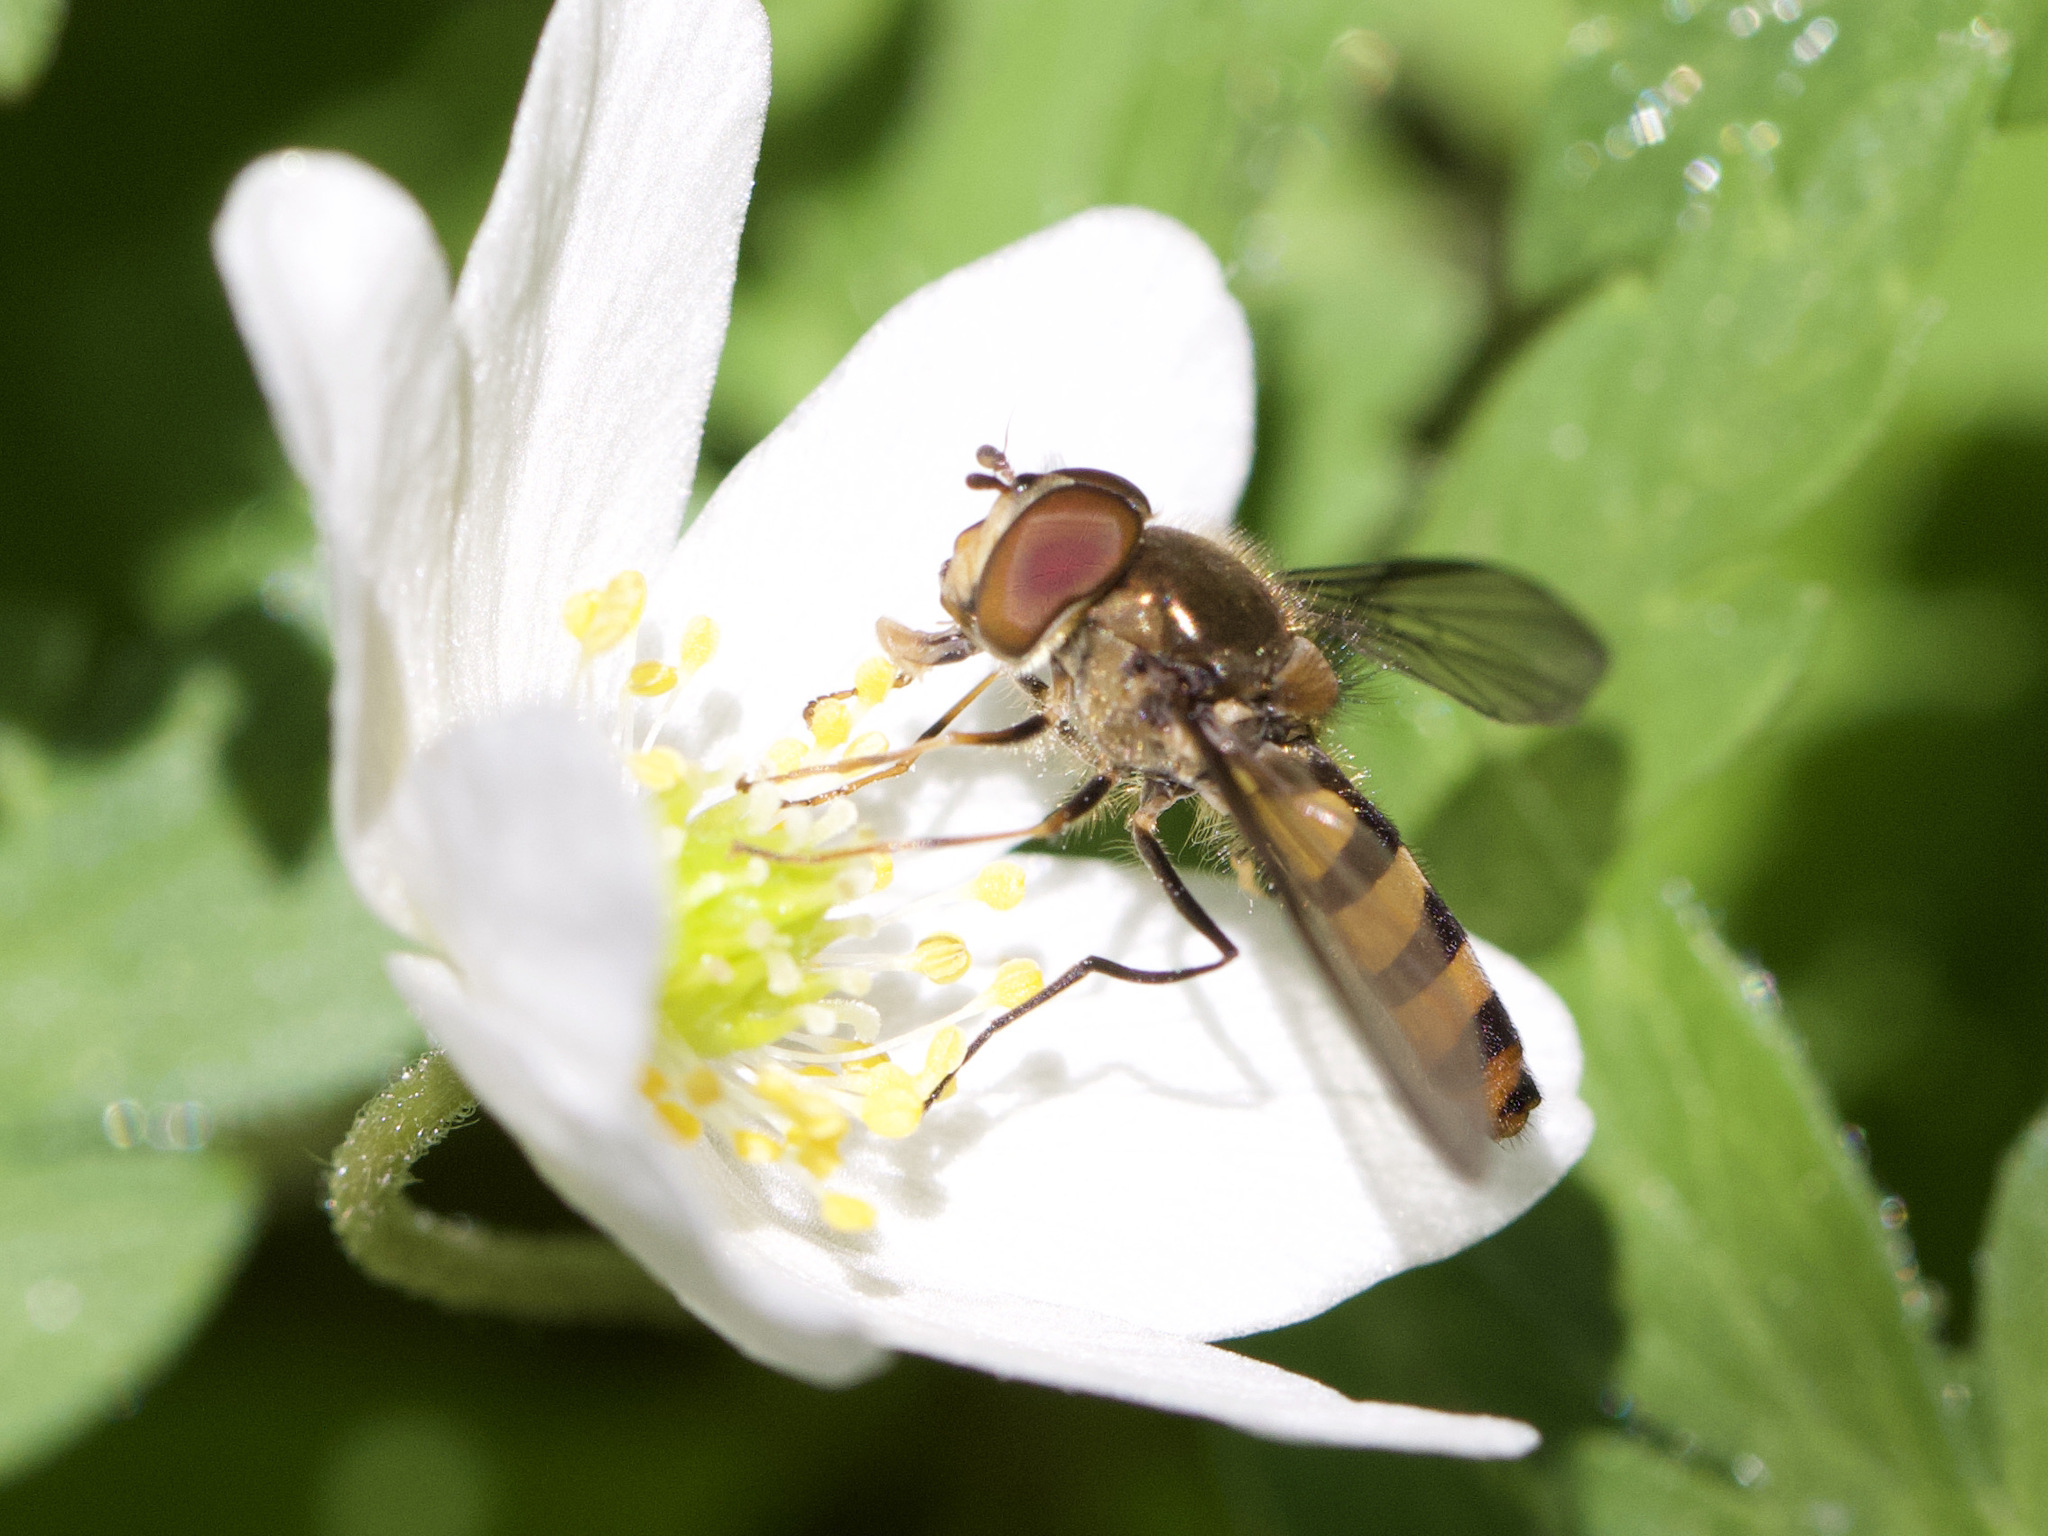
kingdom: Animalia
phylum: Arthropoda
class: Insecta
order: Diptera
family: Syrphidae
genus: Meliscaeva
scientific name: Meliscaeva cinctella
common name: American thintail fly
